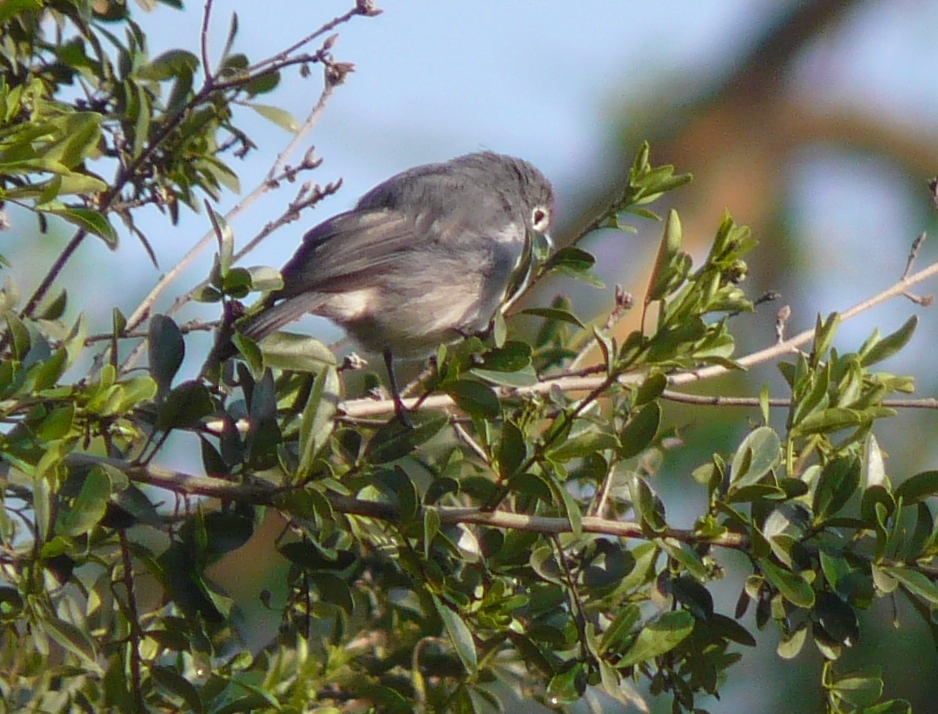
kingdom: Animalia
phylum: Chordata
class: Aves
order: Passeriformes
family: Muscicapidae
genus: Dioptrornis
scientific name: Dioptrornis fischeri
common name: White-eyed slaty flycatcher
